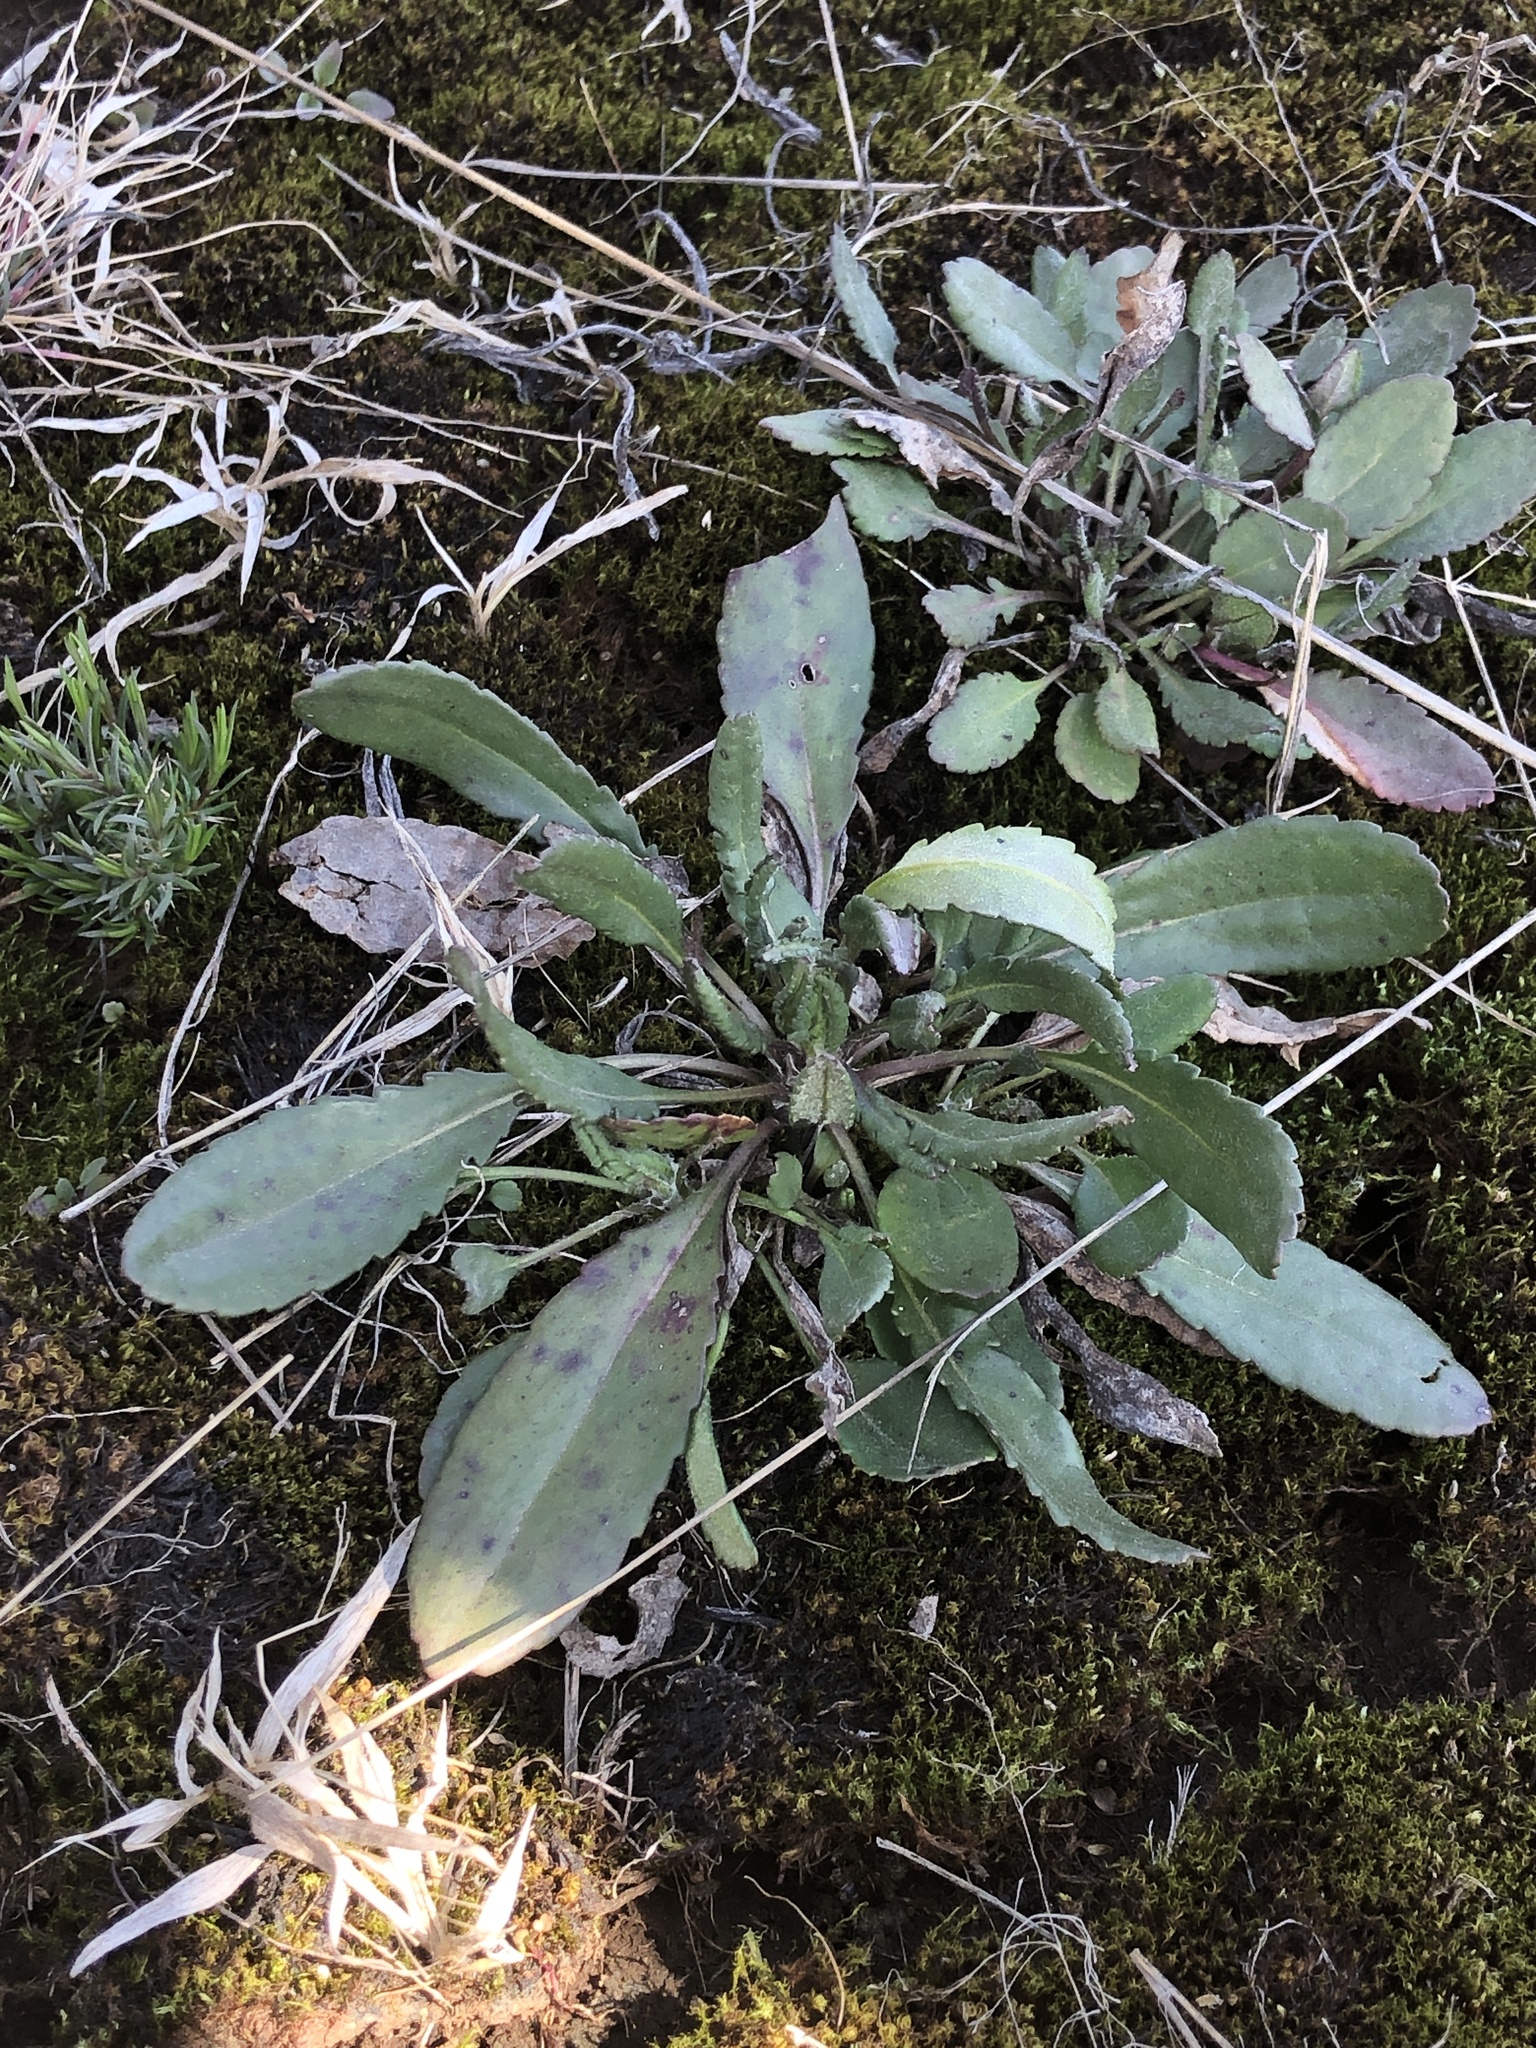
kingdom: Plantae
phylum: Tracheophyta
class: Magnoliopsida
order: Asterales
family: Asteraceae
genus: Packera
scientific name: Packera paupercula
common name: Balsam groundsel
